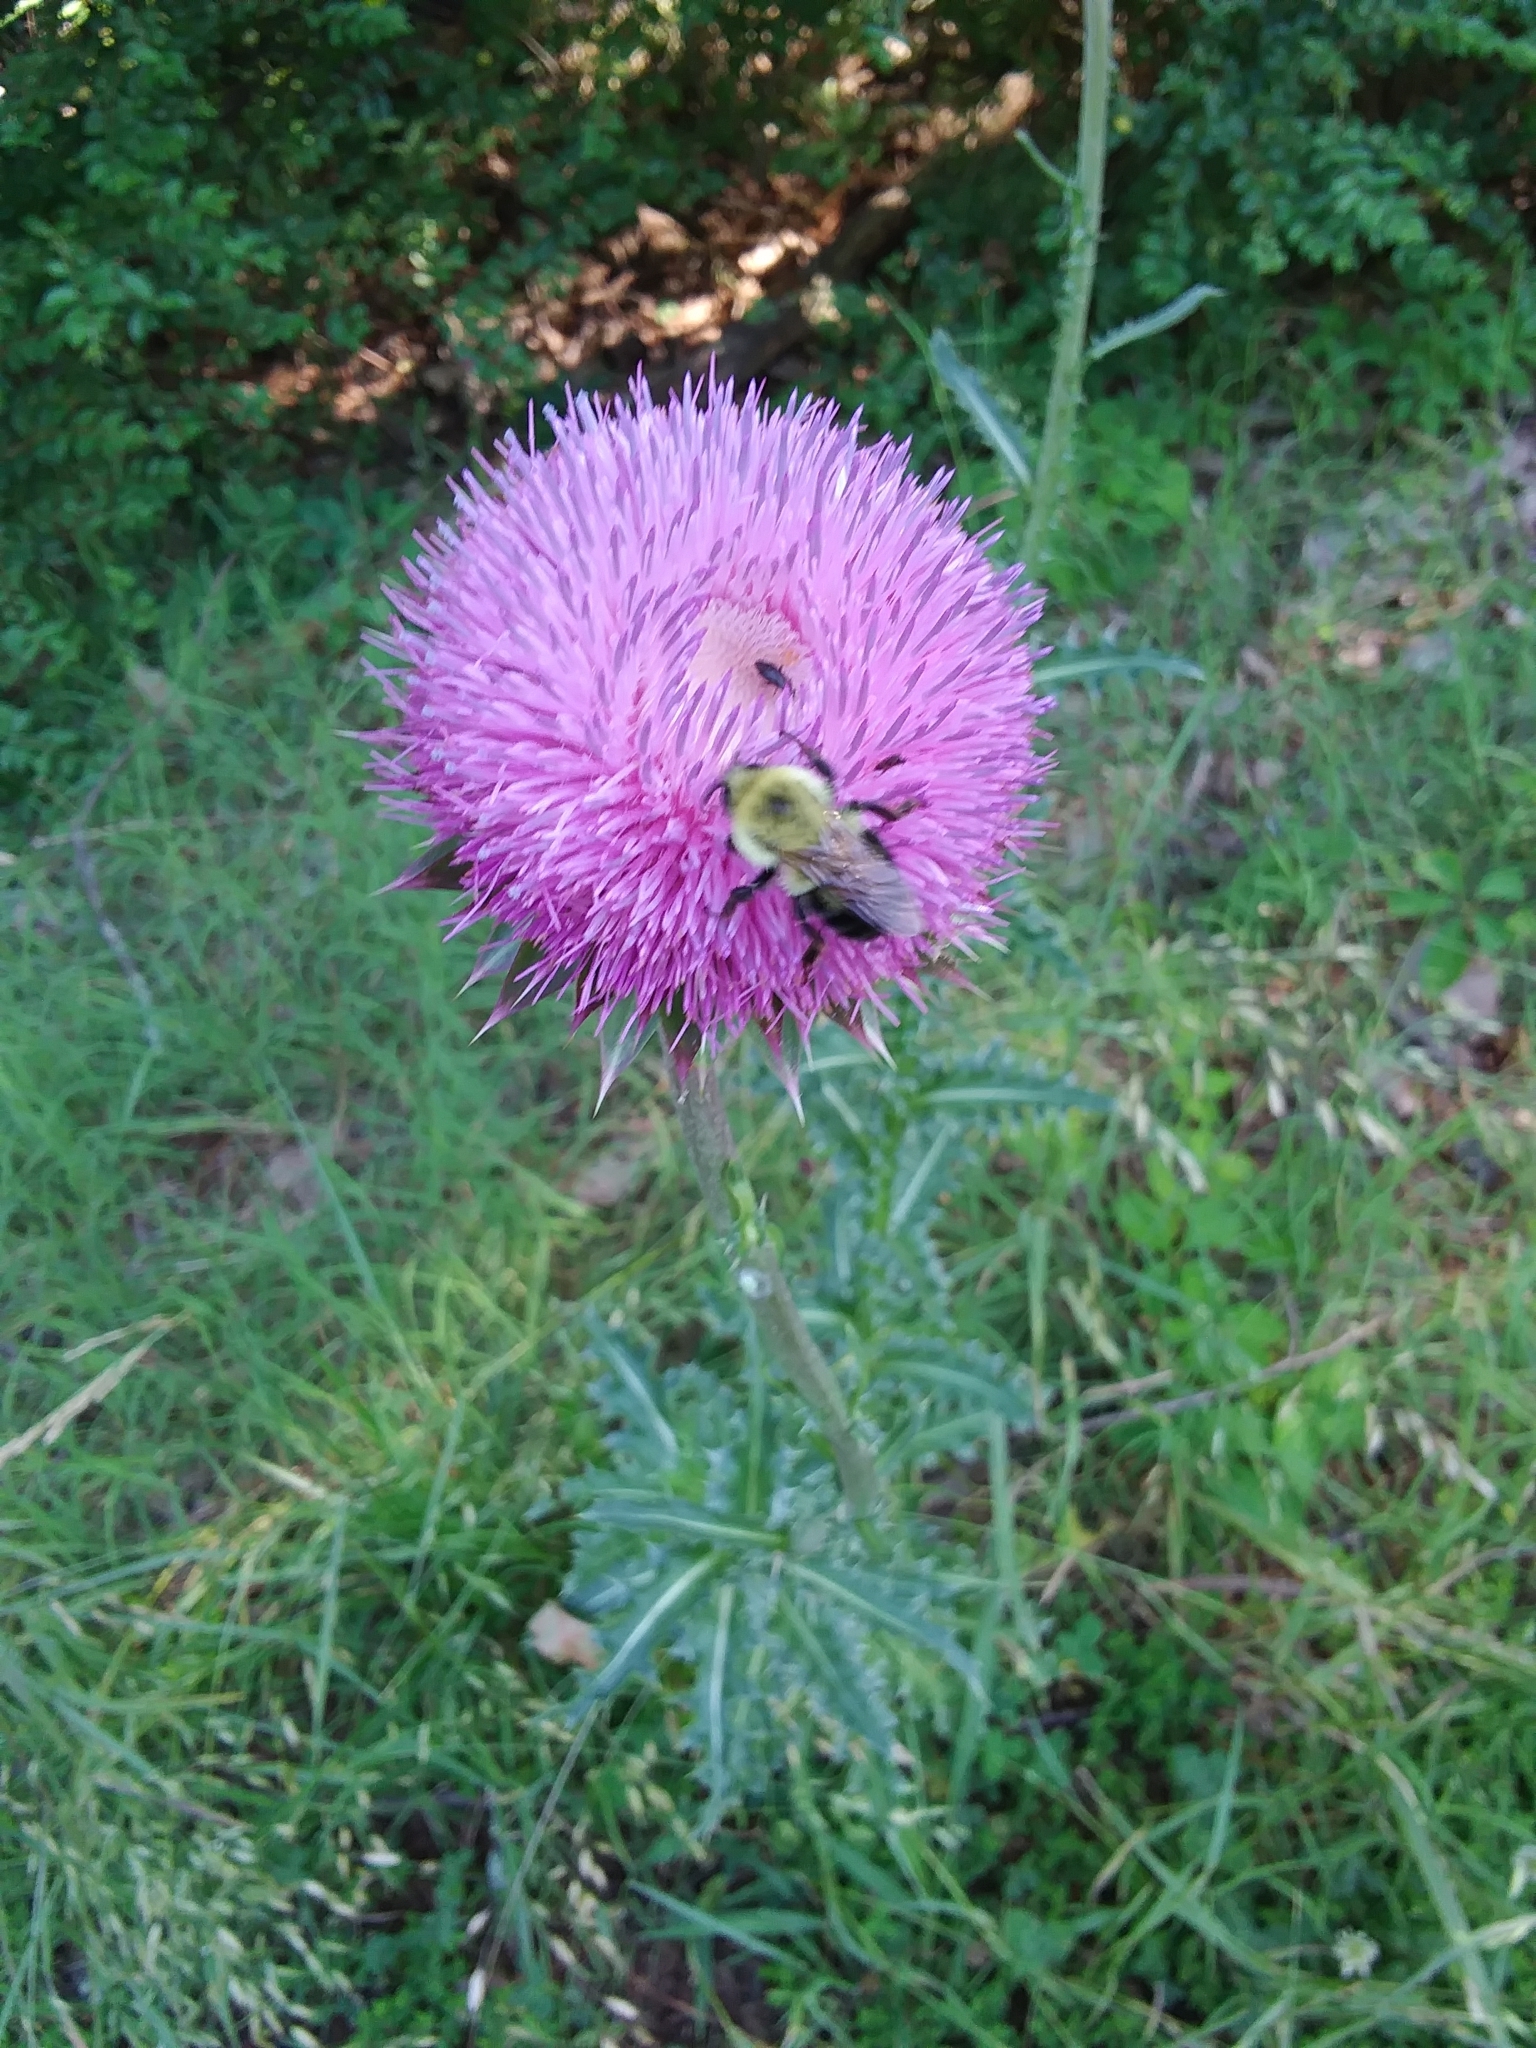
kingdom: Animalia
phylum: Arthropoda
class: Insecta
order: Hymenoptera
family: Apidae
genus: Bombus
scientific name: Bombus bimaculatus
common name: Two-spotted bumble bee
